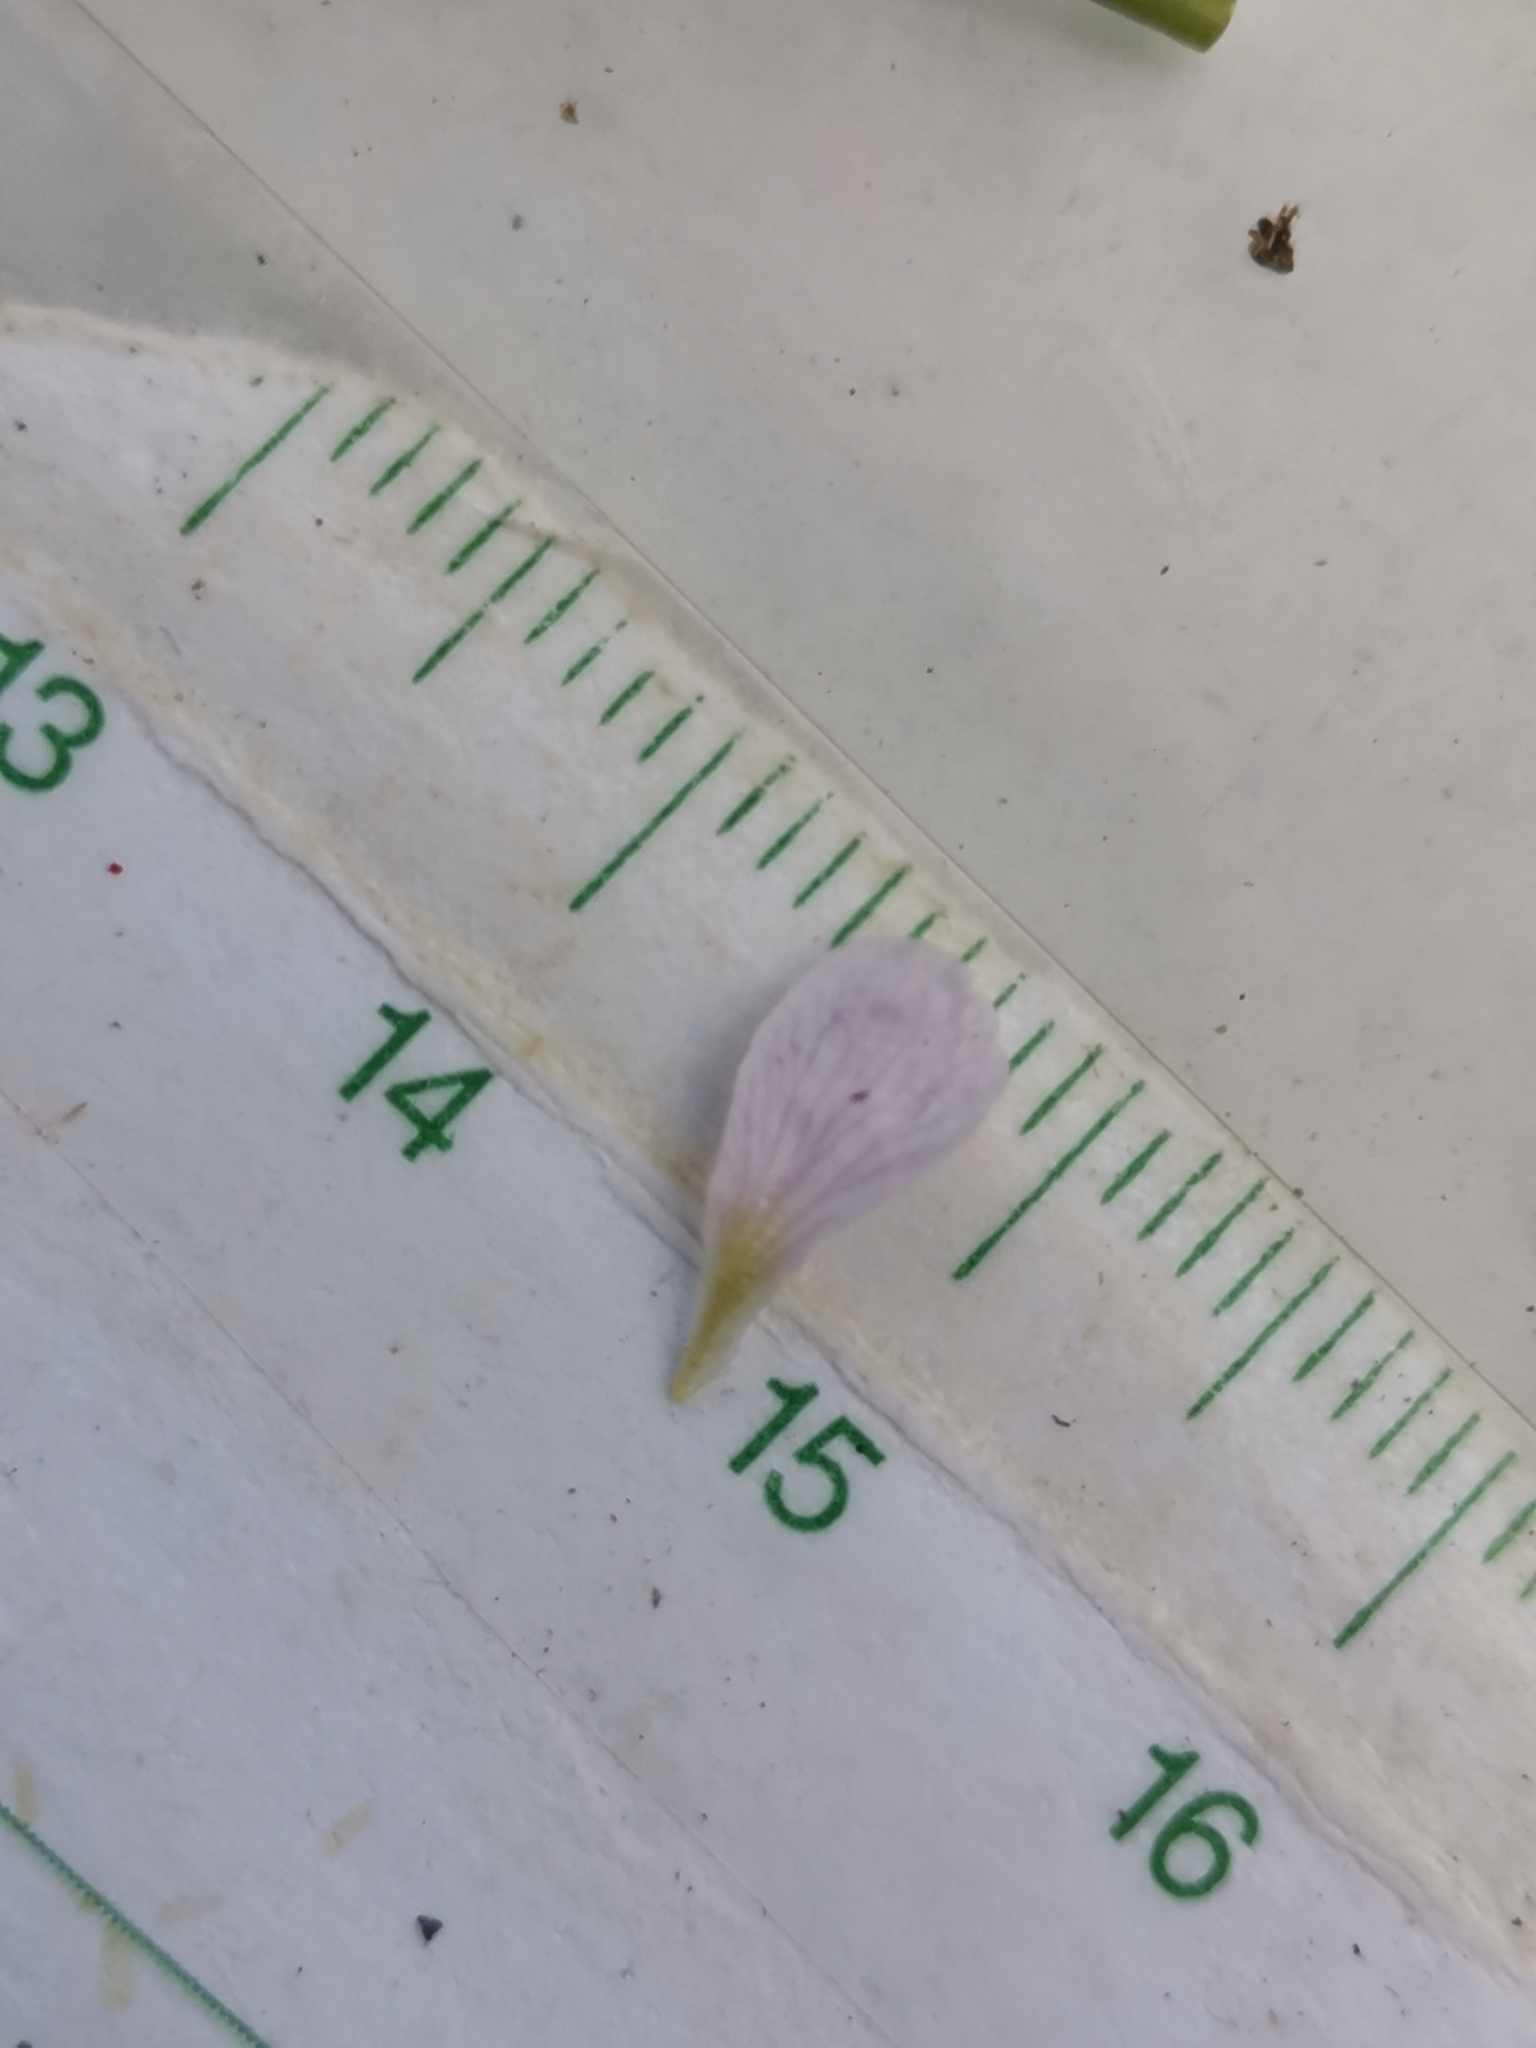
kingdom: Plantae
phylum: Tracheophyta
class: Magnoliopsida
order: Brassicales
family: Brassicaceae
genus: Cardamine
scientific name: Cardamine matthioli
